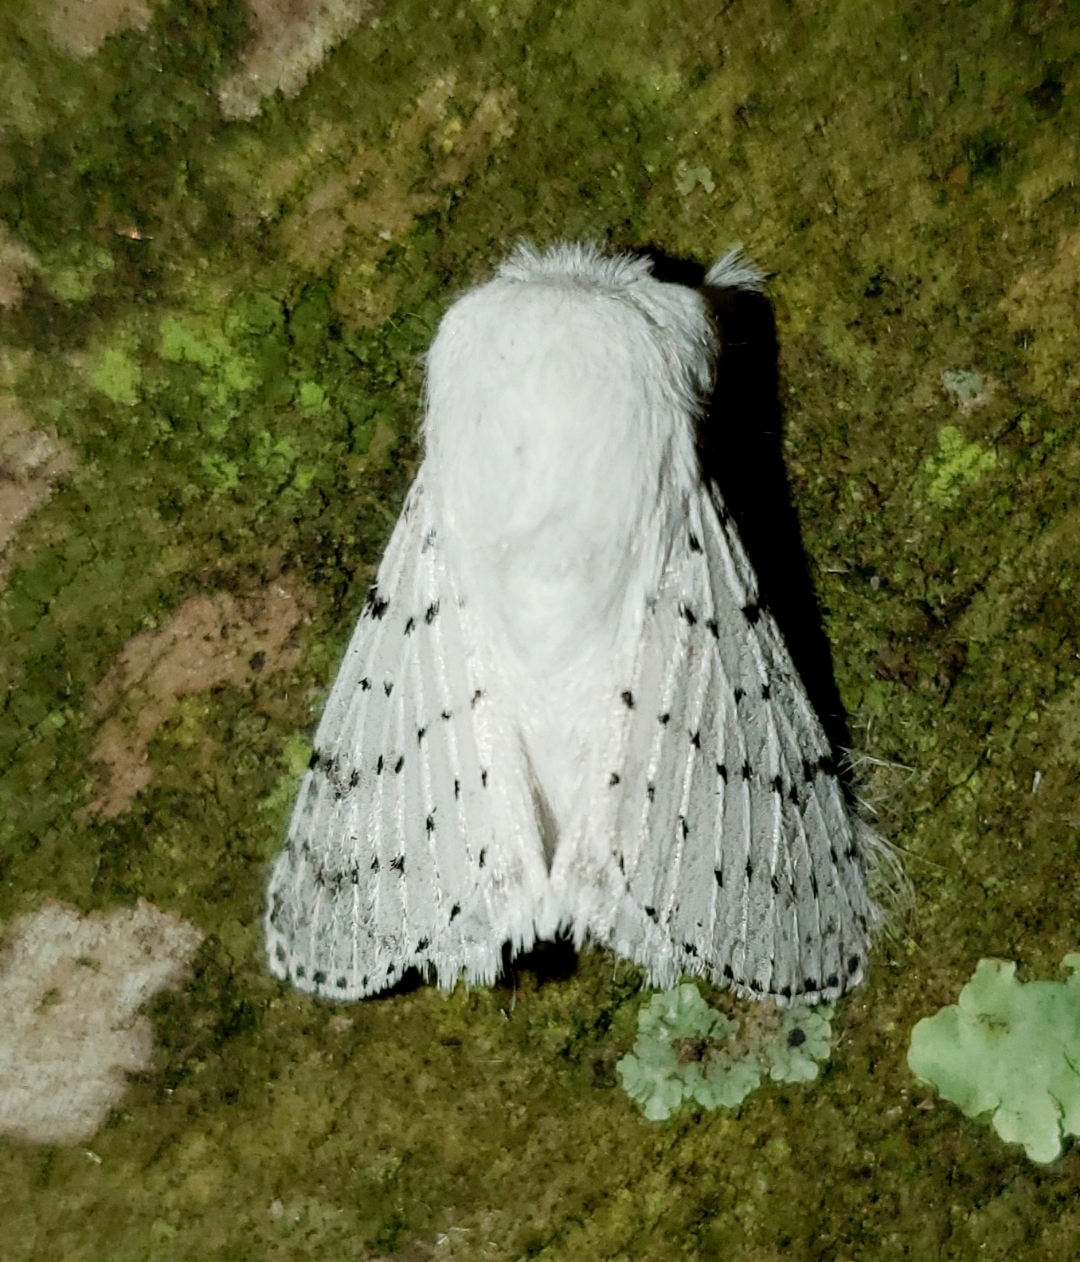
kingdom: Animalia
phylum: Arthropoda
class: Insecta
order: Lepidoptera
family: Lasiocampidae
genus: Artace
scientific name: Artace cribrarius
